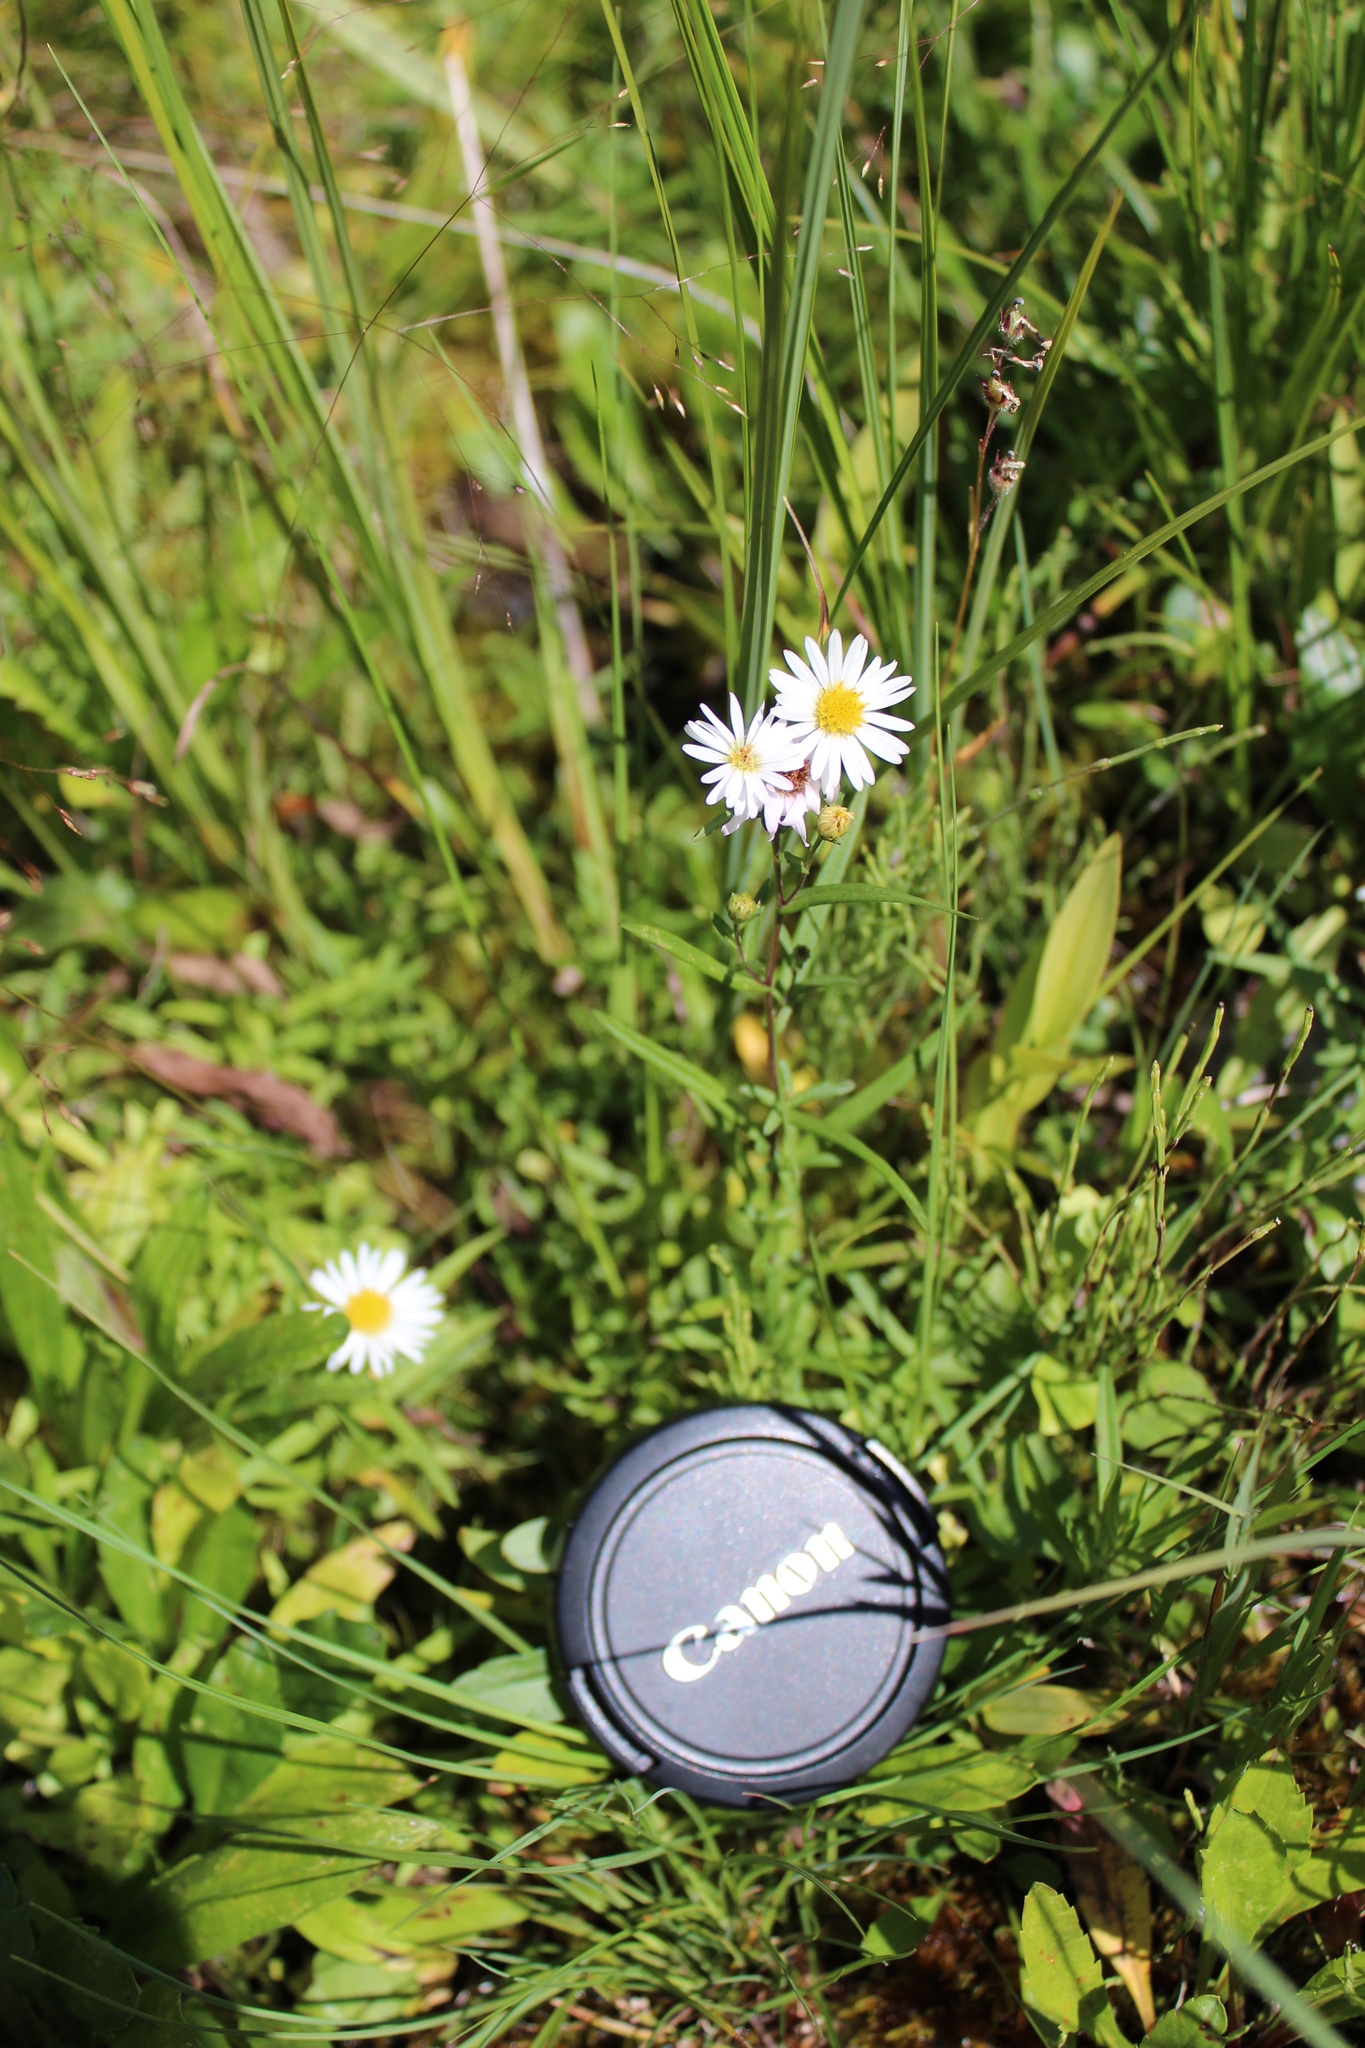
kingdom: Plantae
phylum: Tracheophyta
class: Magnoliopsida
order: Asterales
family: Asteraceae
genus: Symphyotrichum
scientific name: Symphyotrichum nahanniense
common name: Nahanni aster
